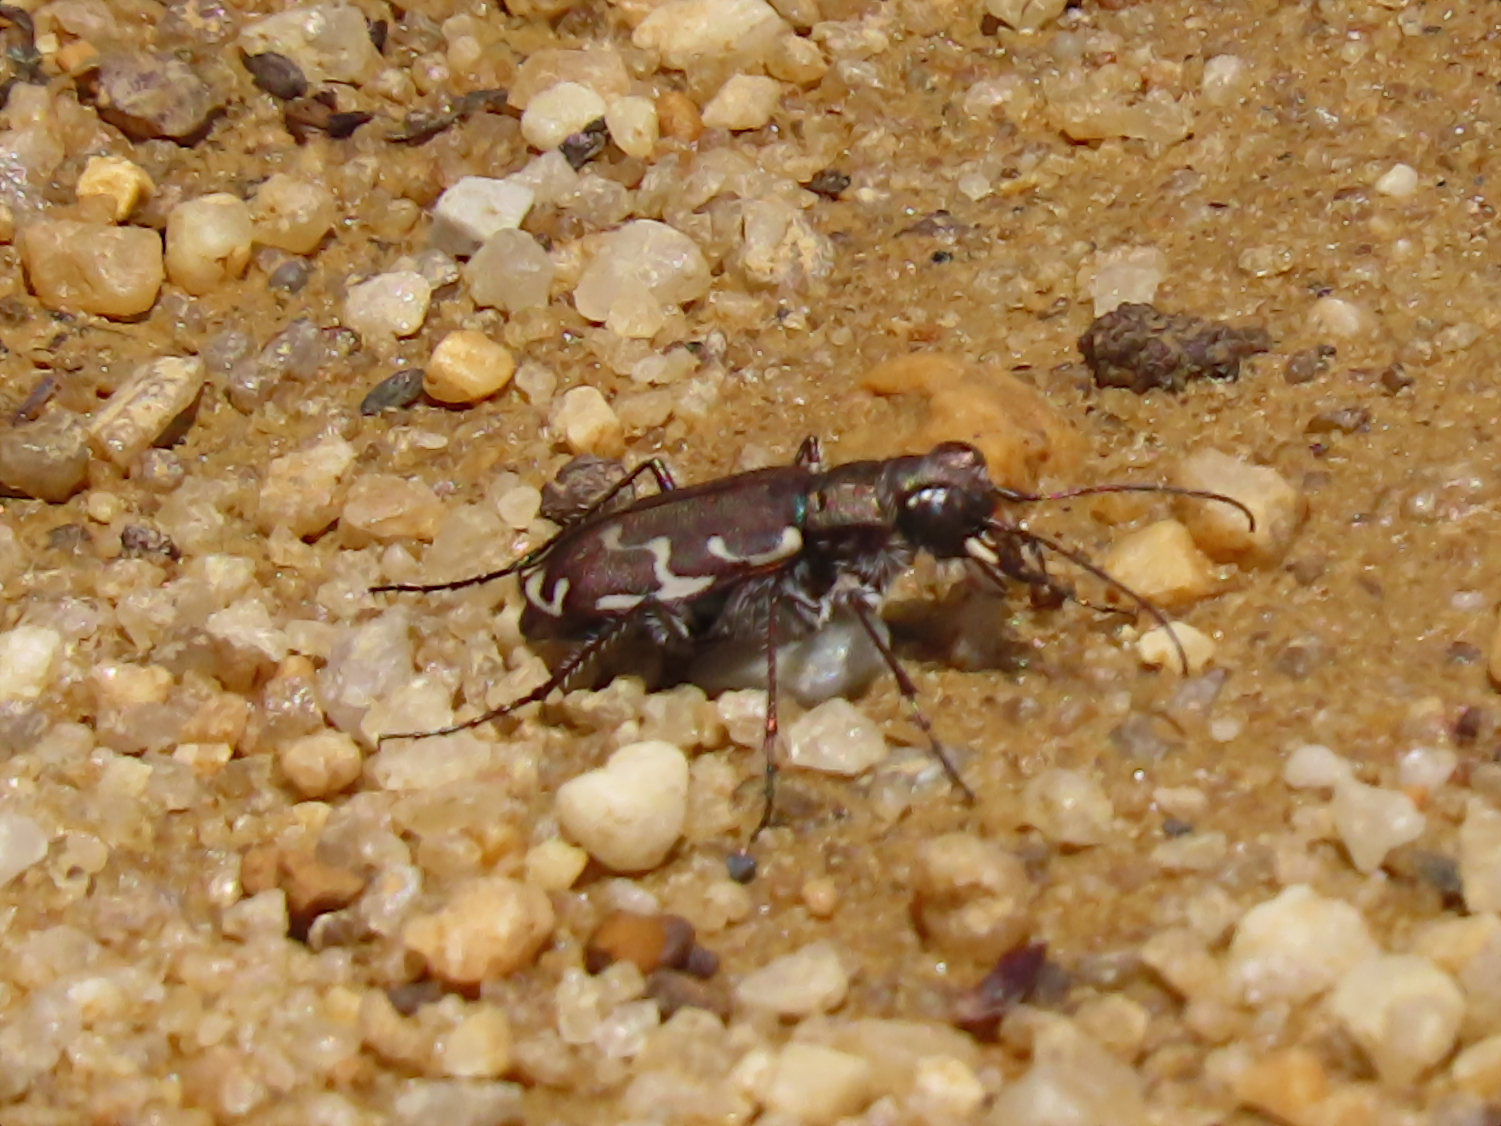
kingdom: Animalia
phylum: Arthropoda
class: Insecta
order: Coleoptera
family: Carabidae
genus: Cicindela
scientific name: Cicindela repanda
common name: Bronzed tiger beetle
